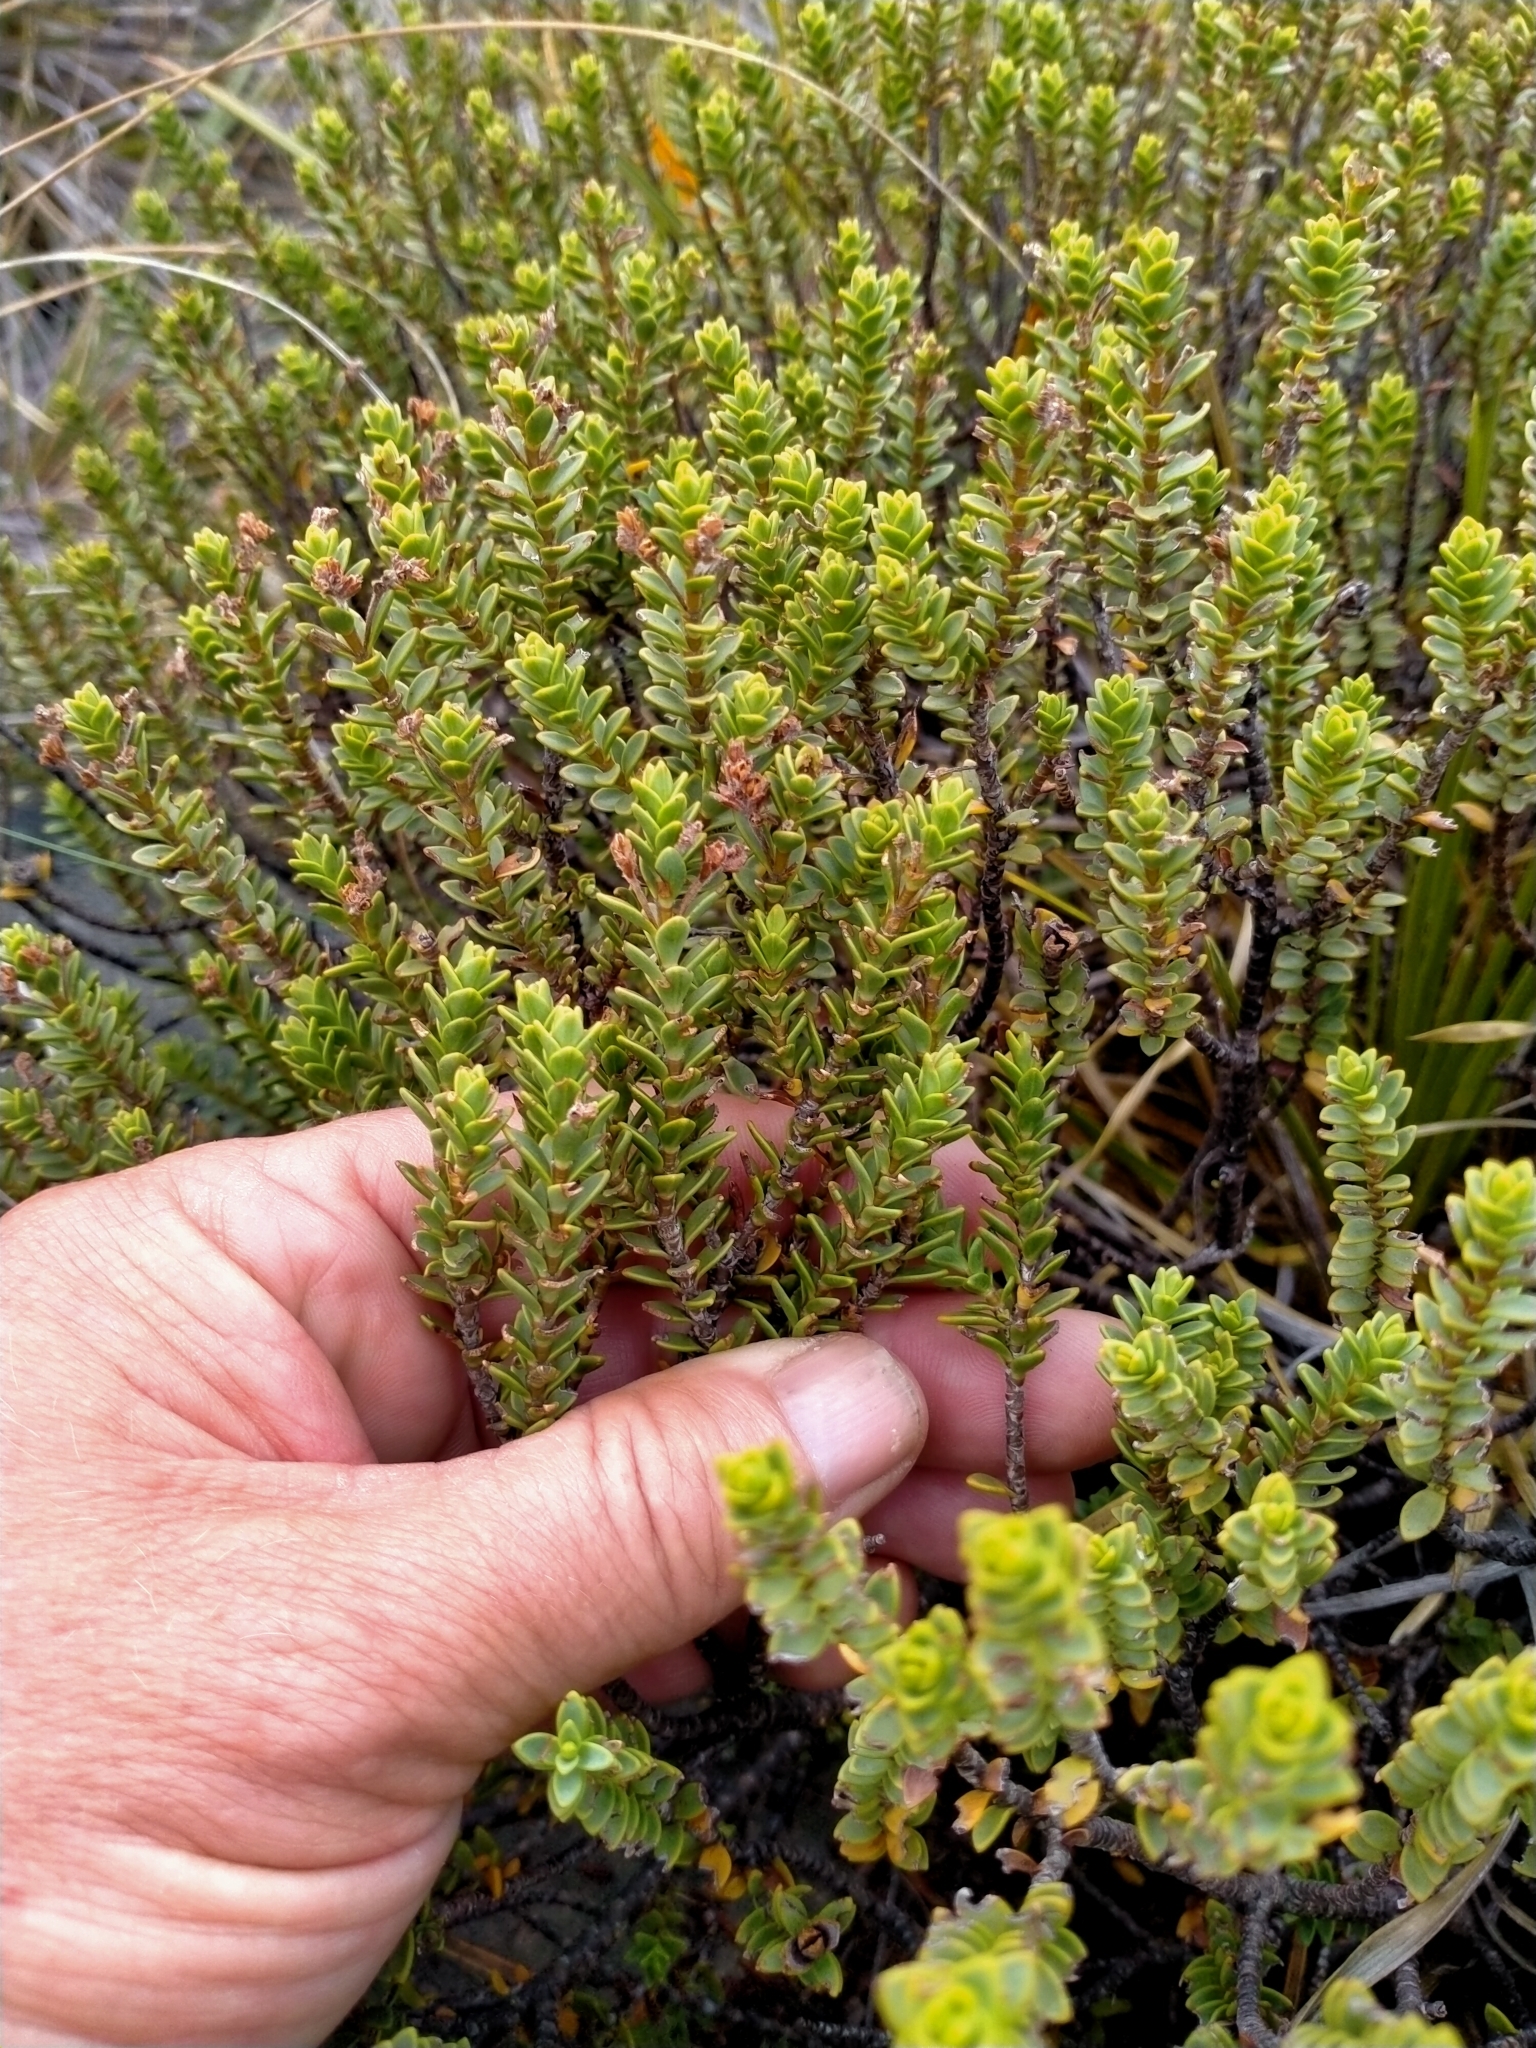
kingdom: Plantae
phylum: Tracheophyta
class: Magnoliopsida
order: Lamiales
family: Plantaginaceae
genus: Veronica
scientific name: Veronica buchananii
